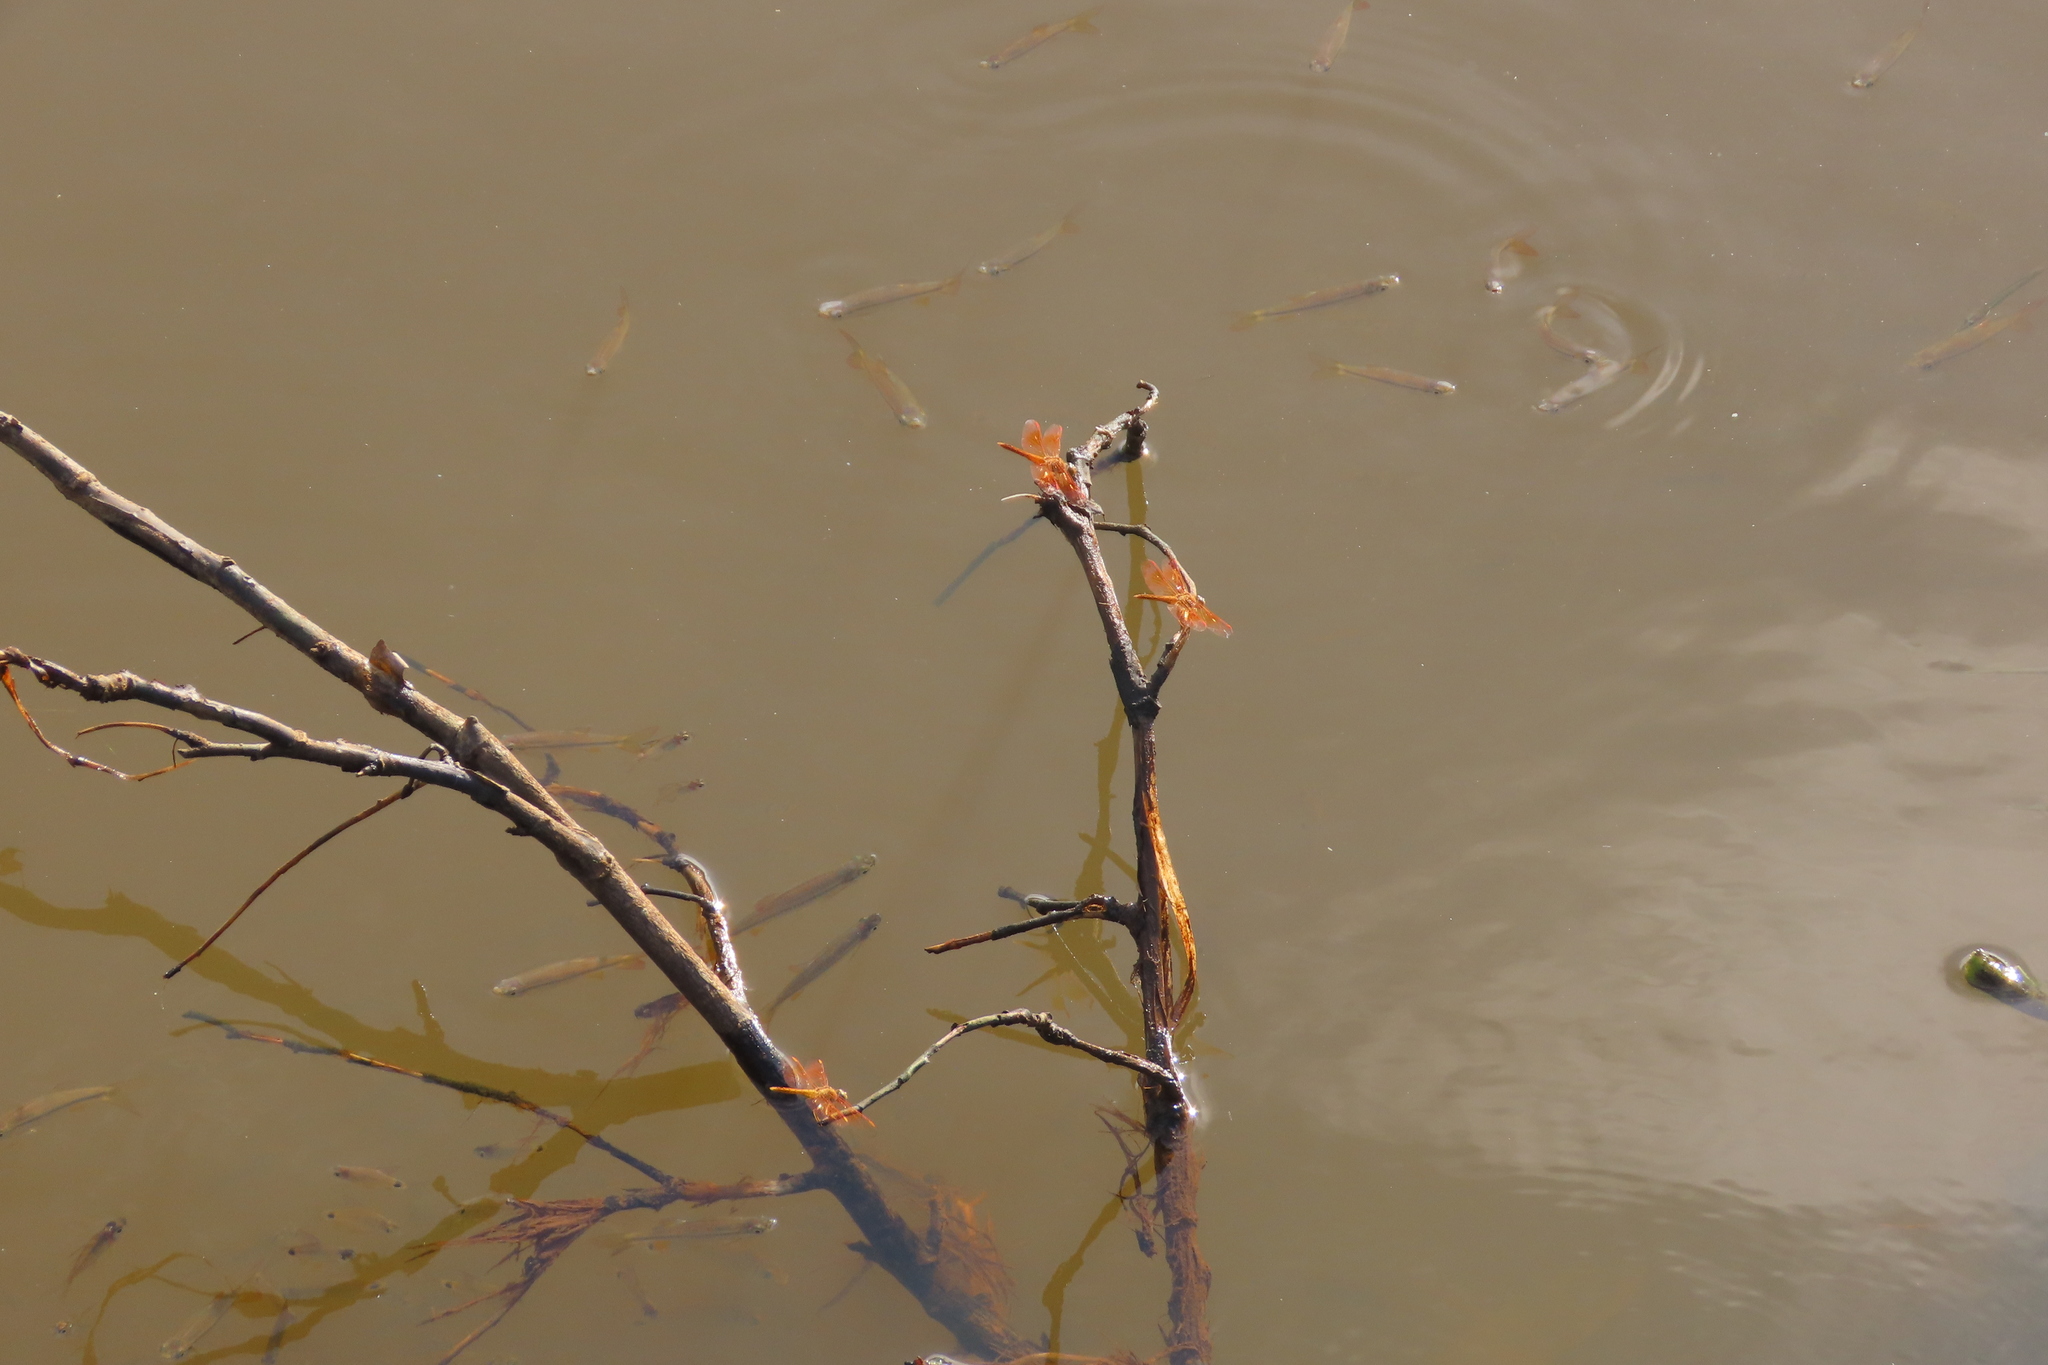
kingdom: Animalia
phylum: Arthropoda
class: Insecta
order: Odonata
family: Libellulidae
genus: Brachythemis
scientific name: Brachythemis contaminata
